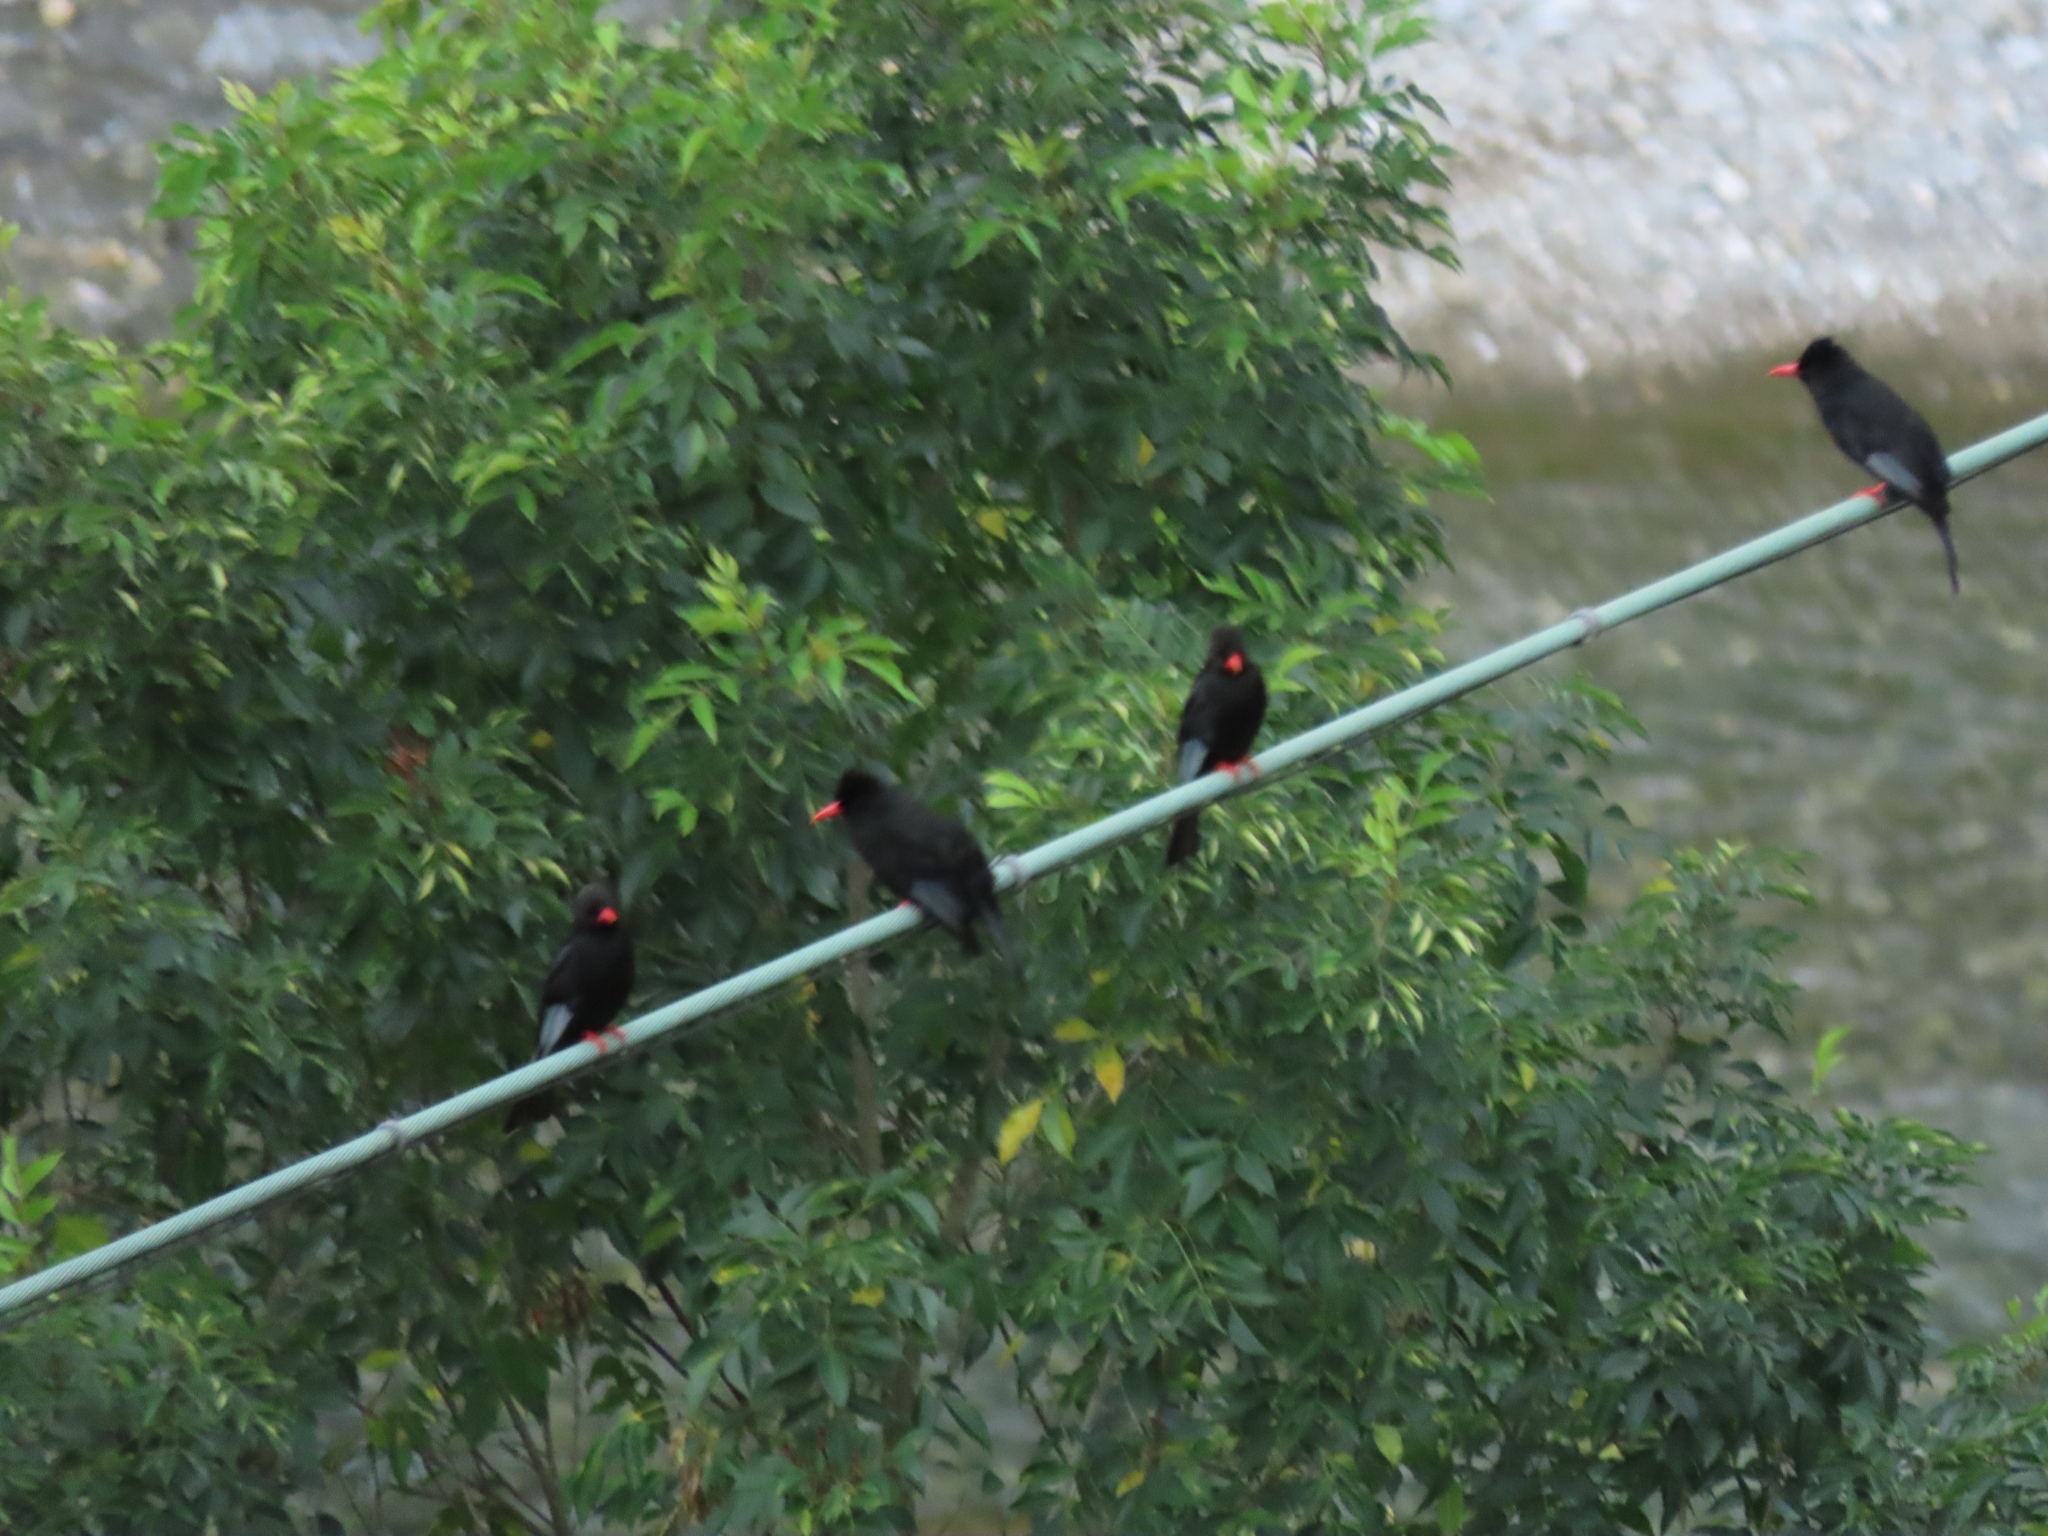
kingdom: Animalia
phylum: Chordata
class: Aves
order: Passeriformes
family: Pycnonotidae
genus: Hypsipetes
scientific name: Hypsipetes leucocephalus
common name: Black bulbul
